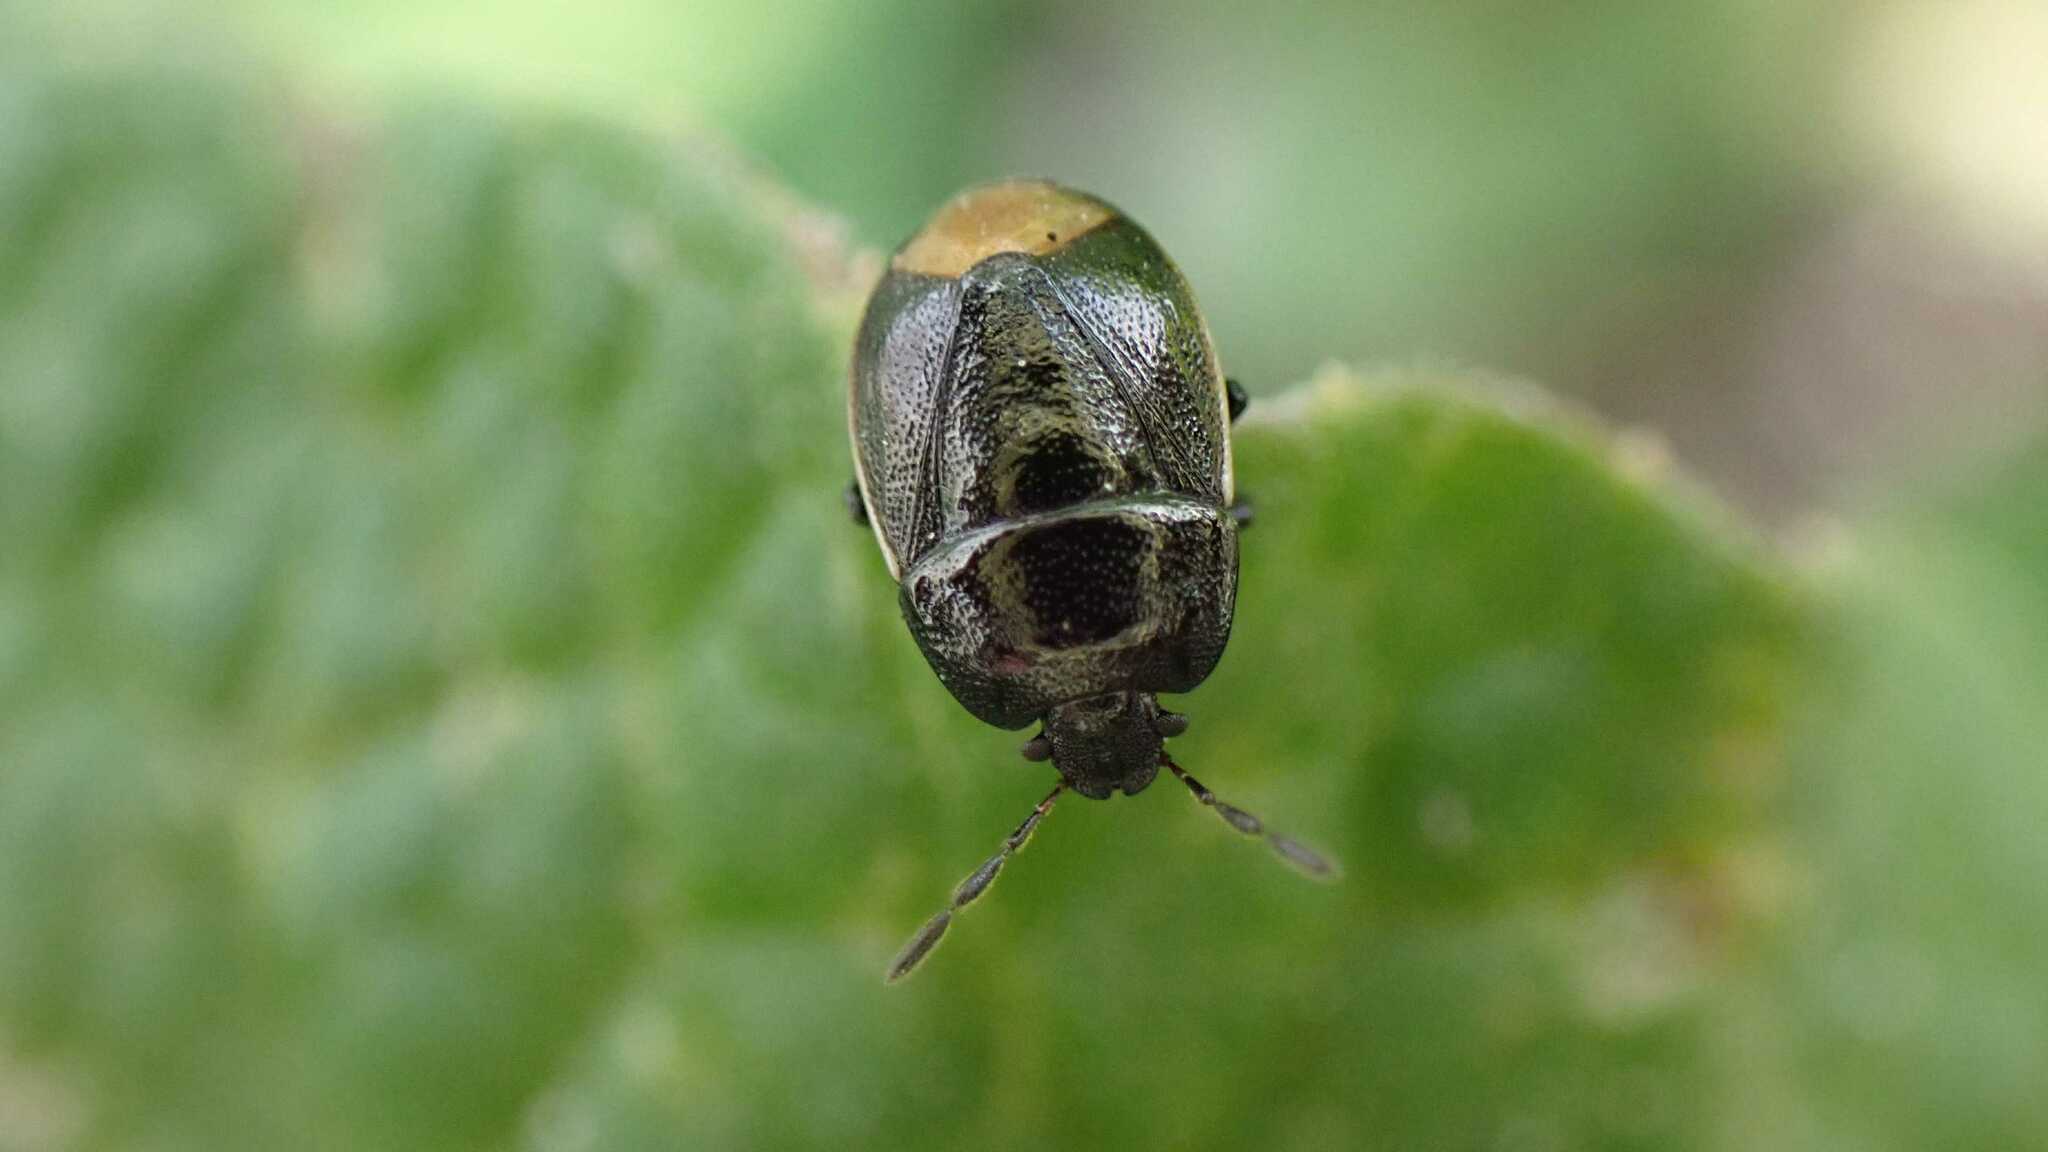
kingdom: Animalia
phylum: Arthropoda
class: Insecta
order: Hemiptera
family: Cydnidae
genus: Legnotus
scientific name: Legnotus limbosus
